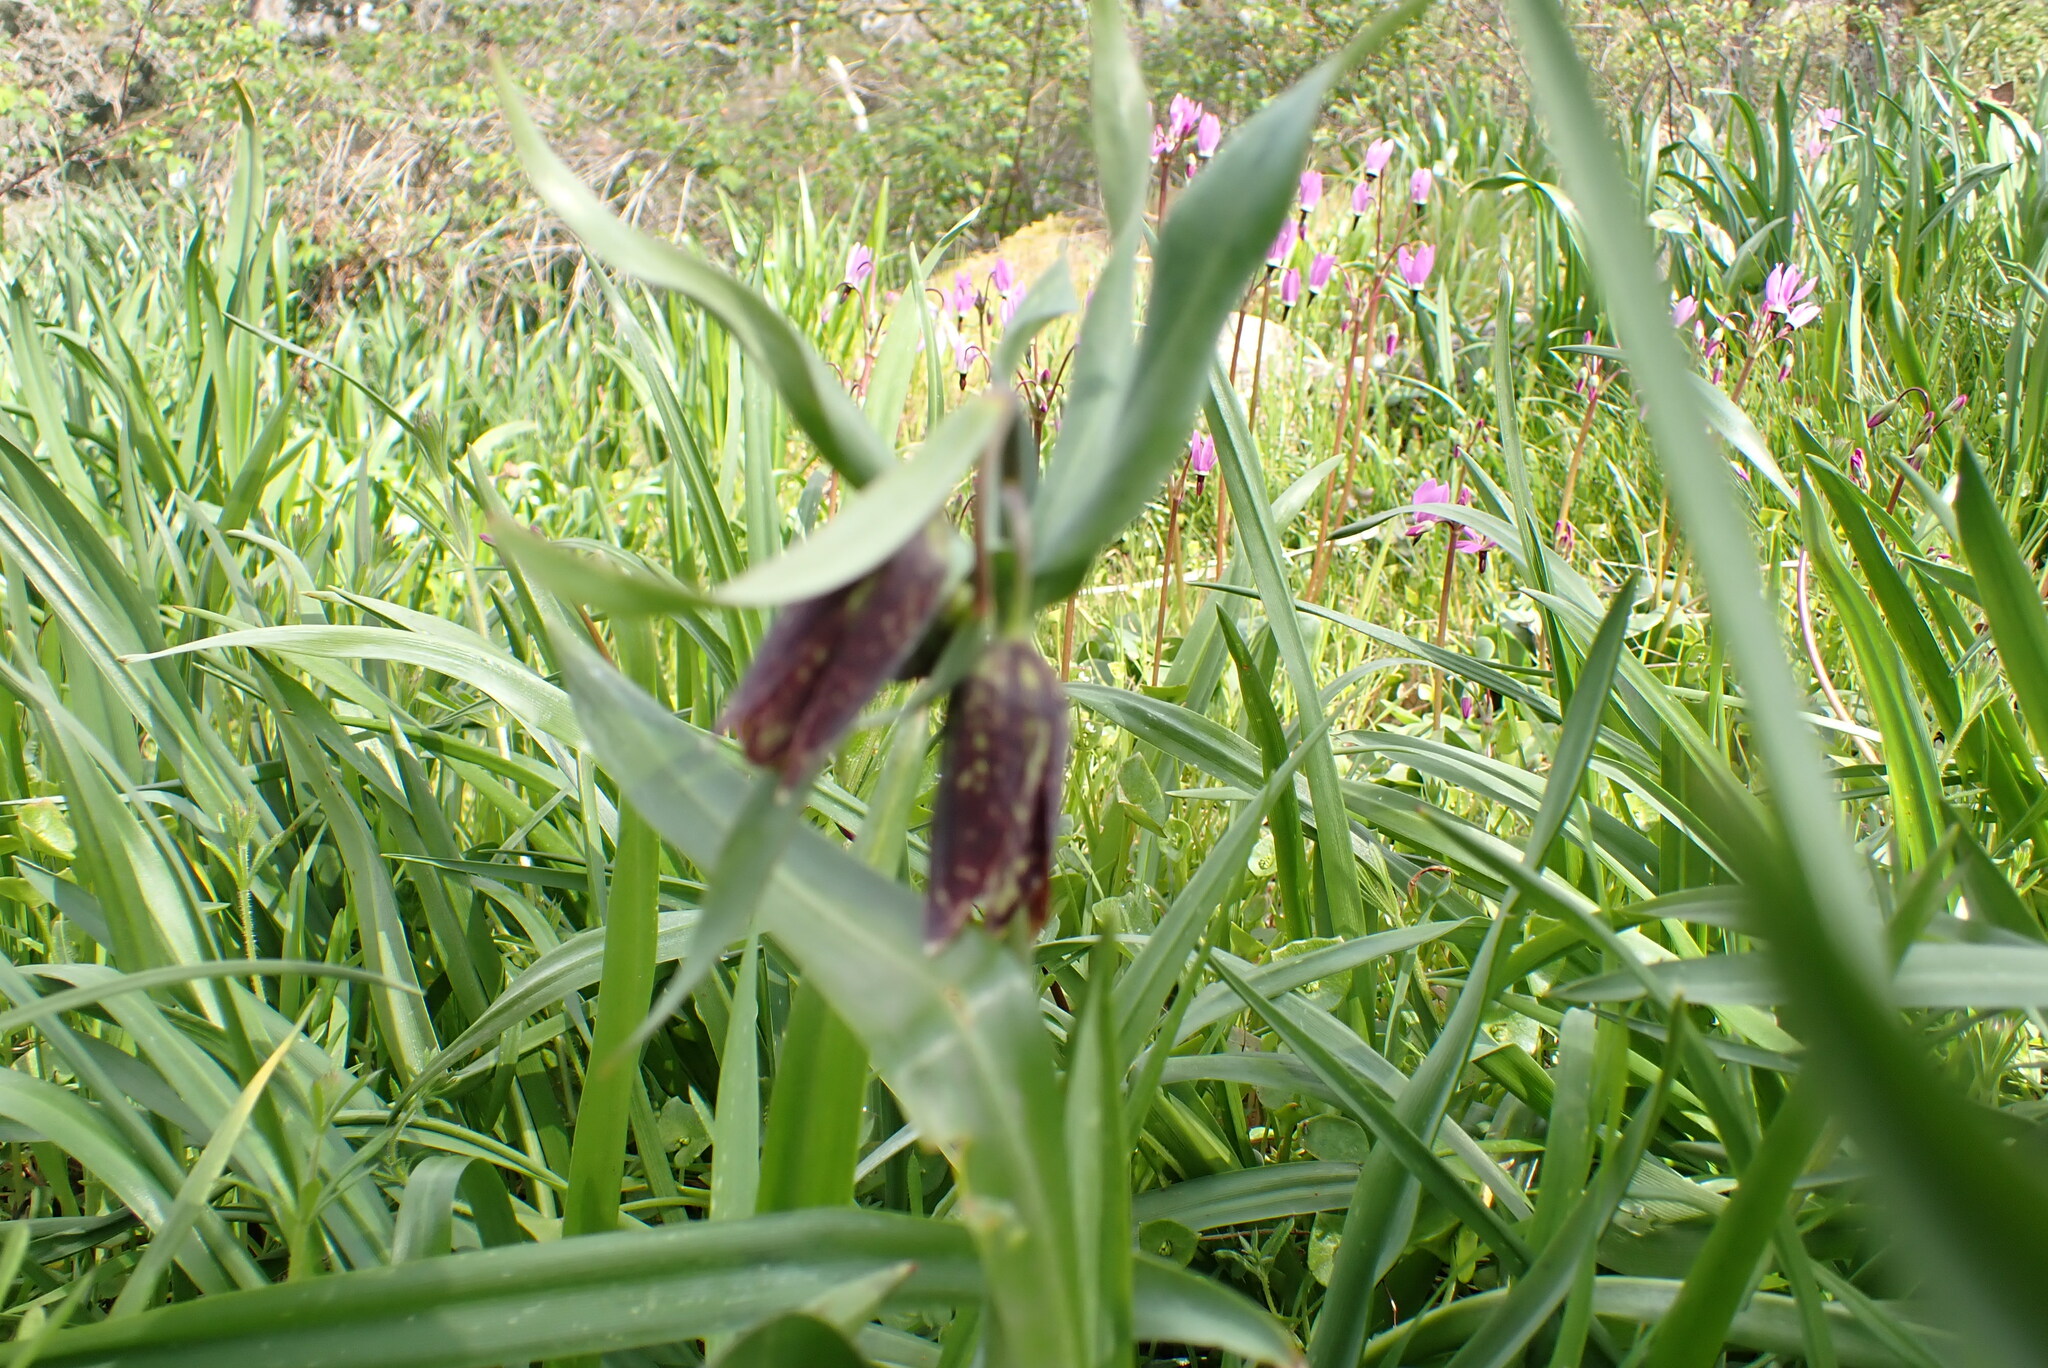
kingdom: Plantae
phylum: Tracheophyta
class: Liliopsida
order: Liliales
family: Liliaceae
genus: Fritillaria
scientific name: Fritillaria affinis
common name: Ojai fritillary
